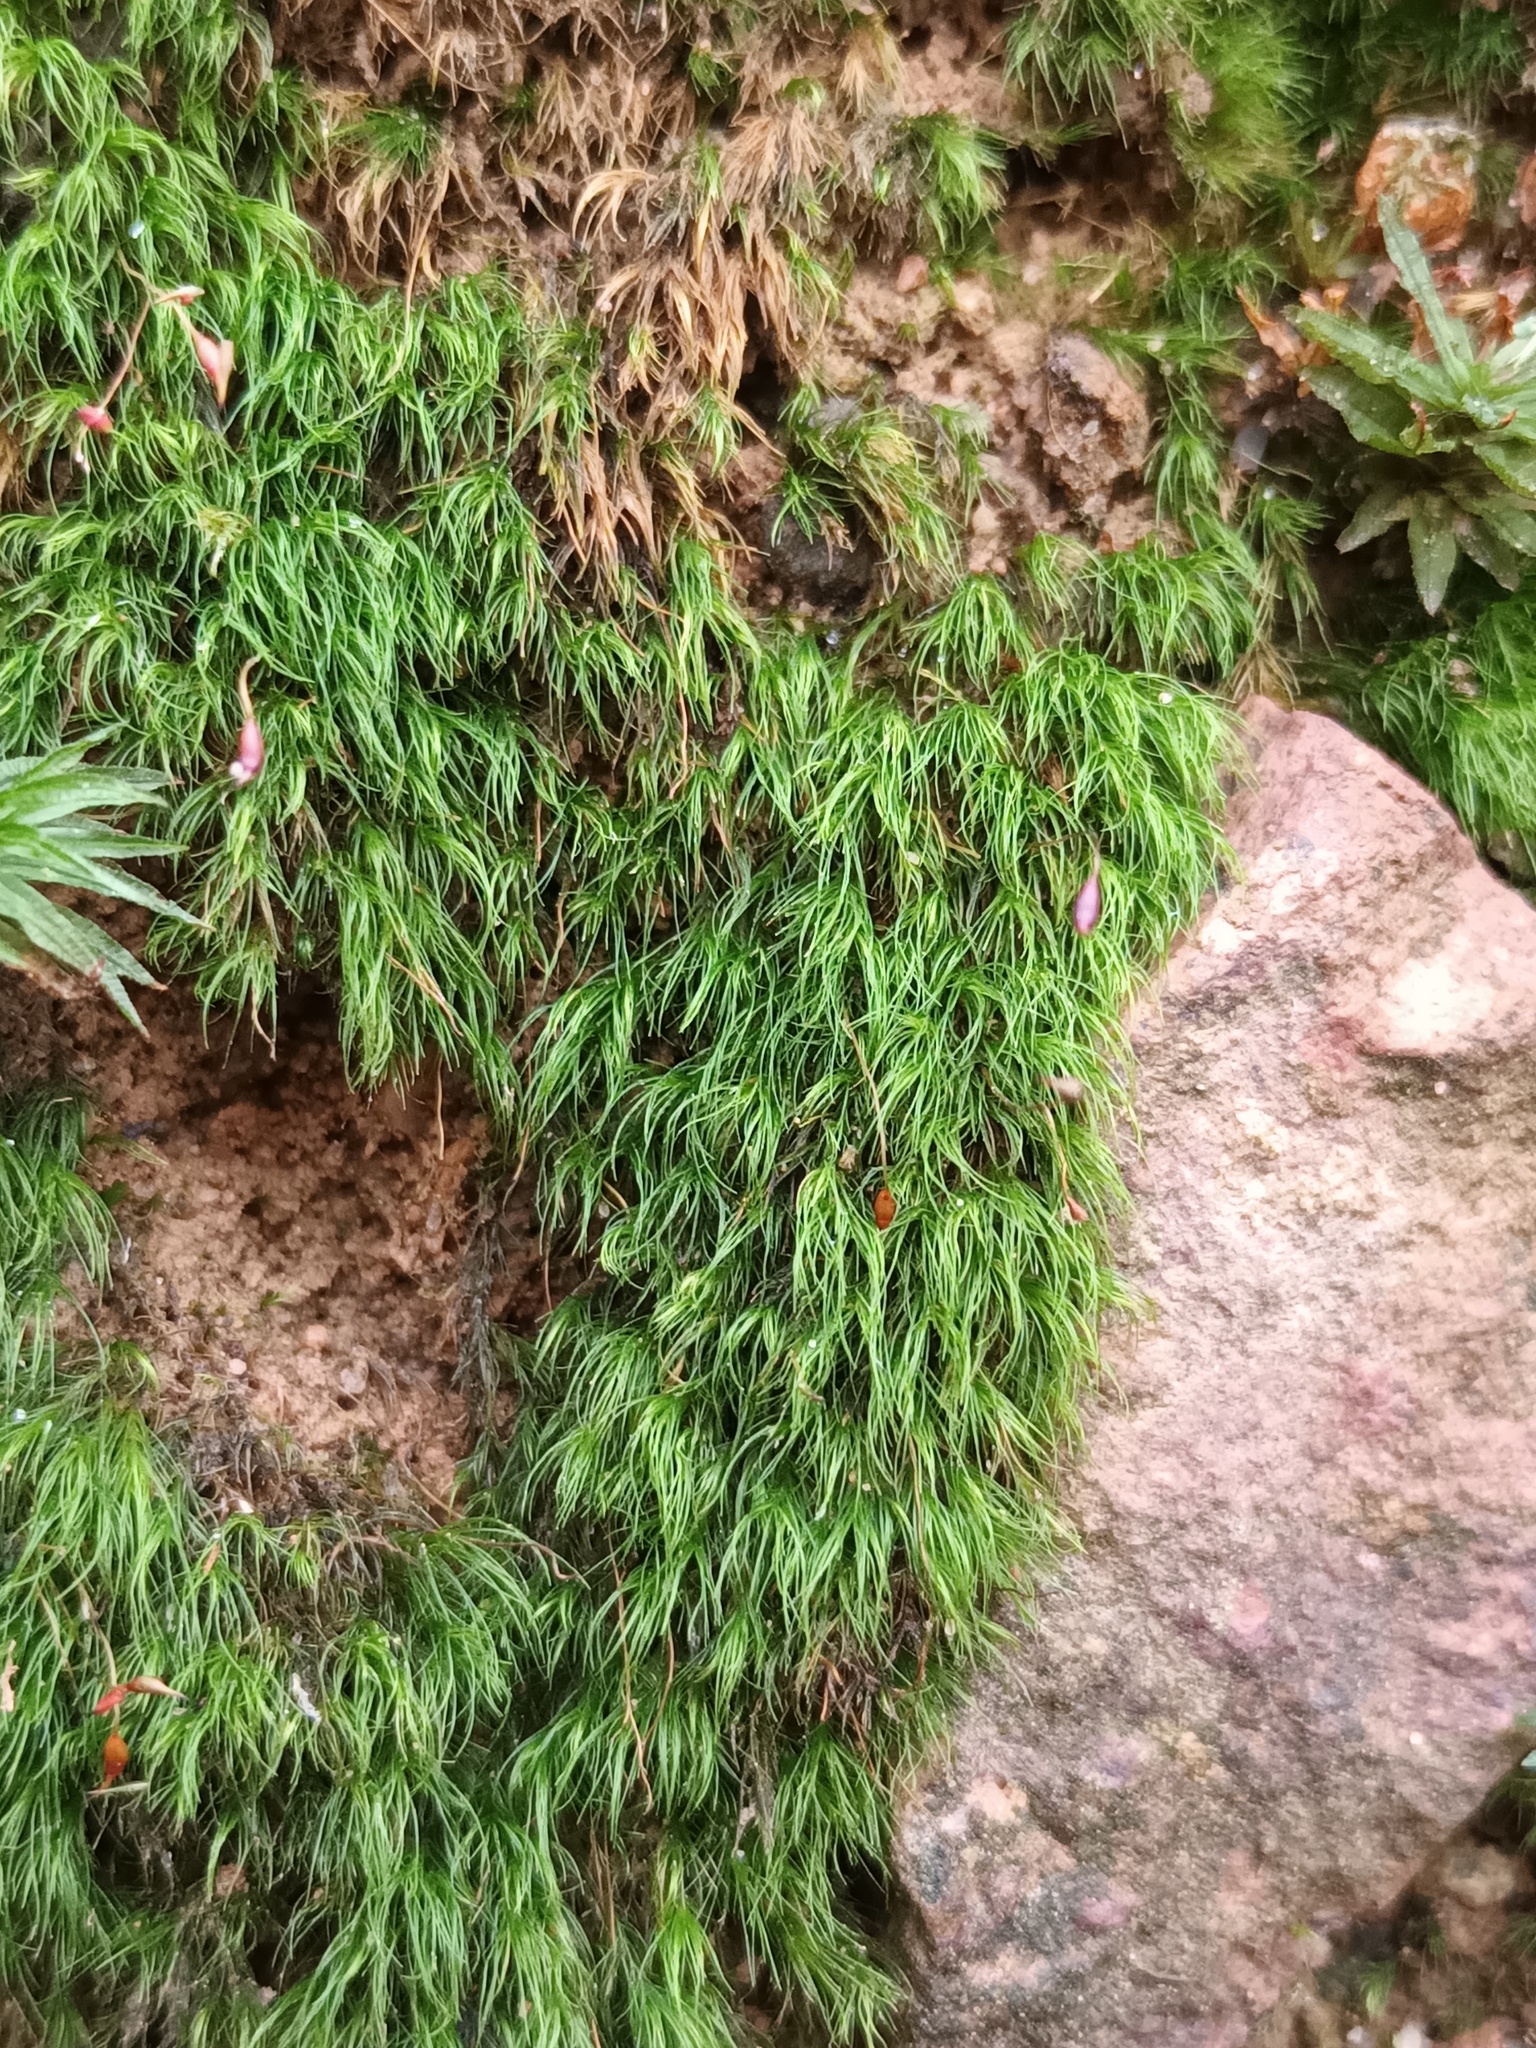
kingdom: Plantae
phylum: Bryophyta
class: Bryopsida
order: Dicranales
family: Dicranellaceae
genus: Dicranella
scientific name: Dicranella heteromalla
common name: Silky forklet moss
